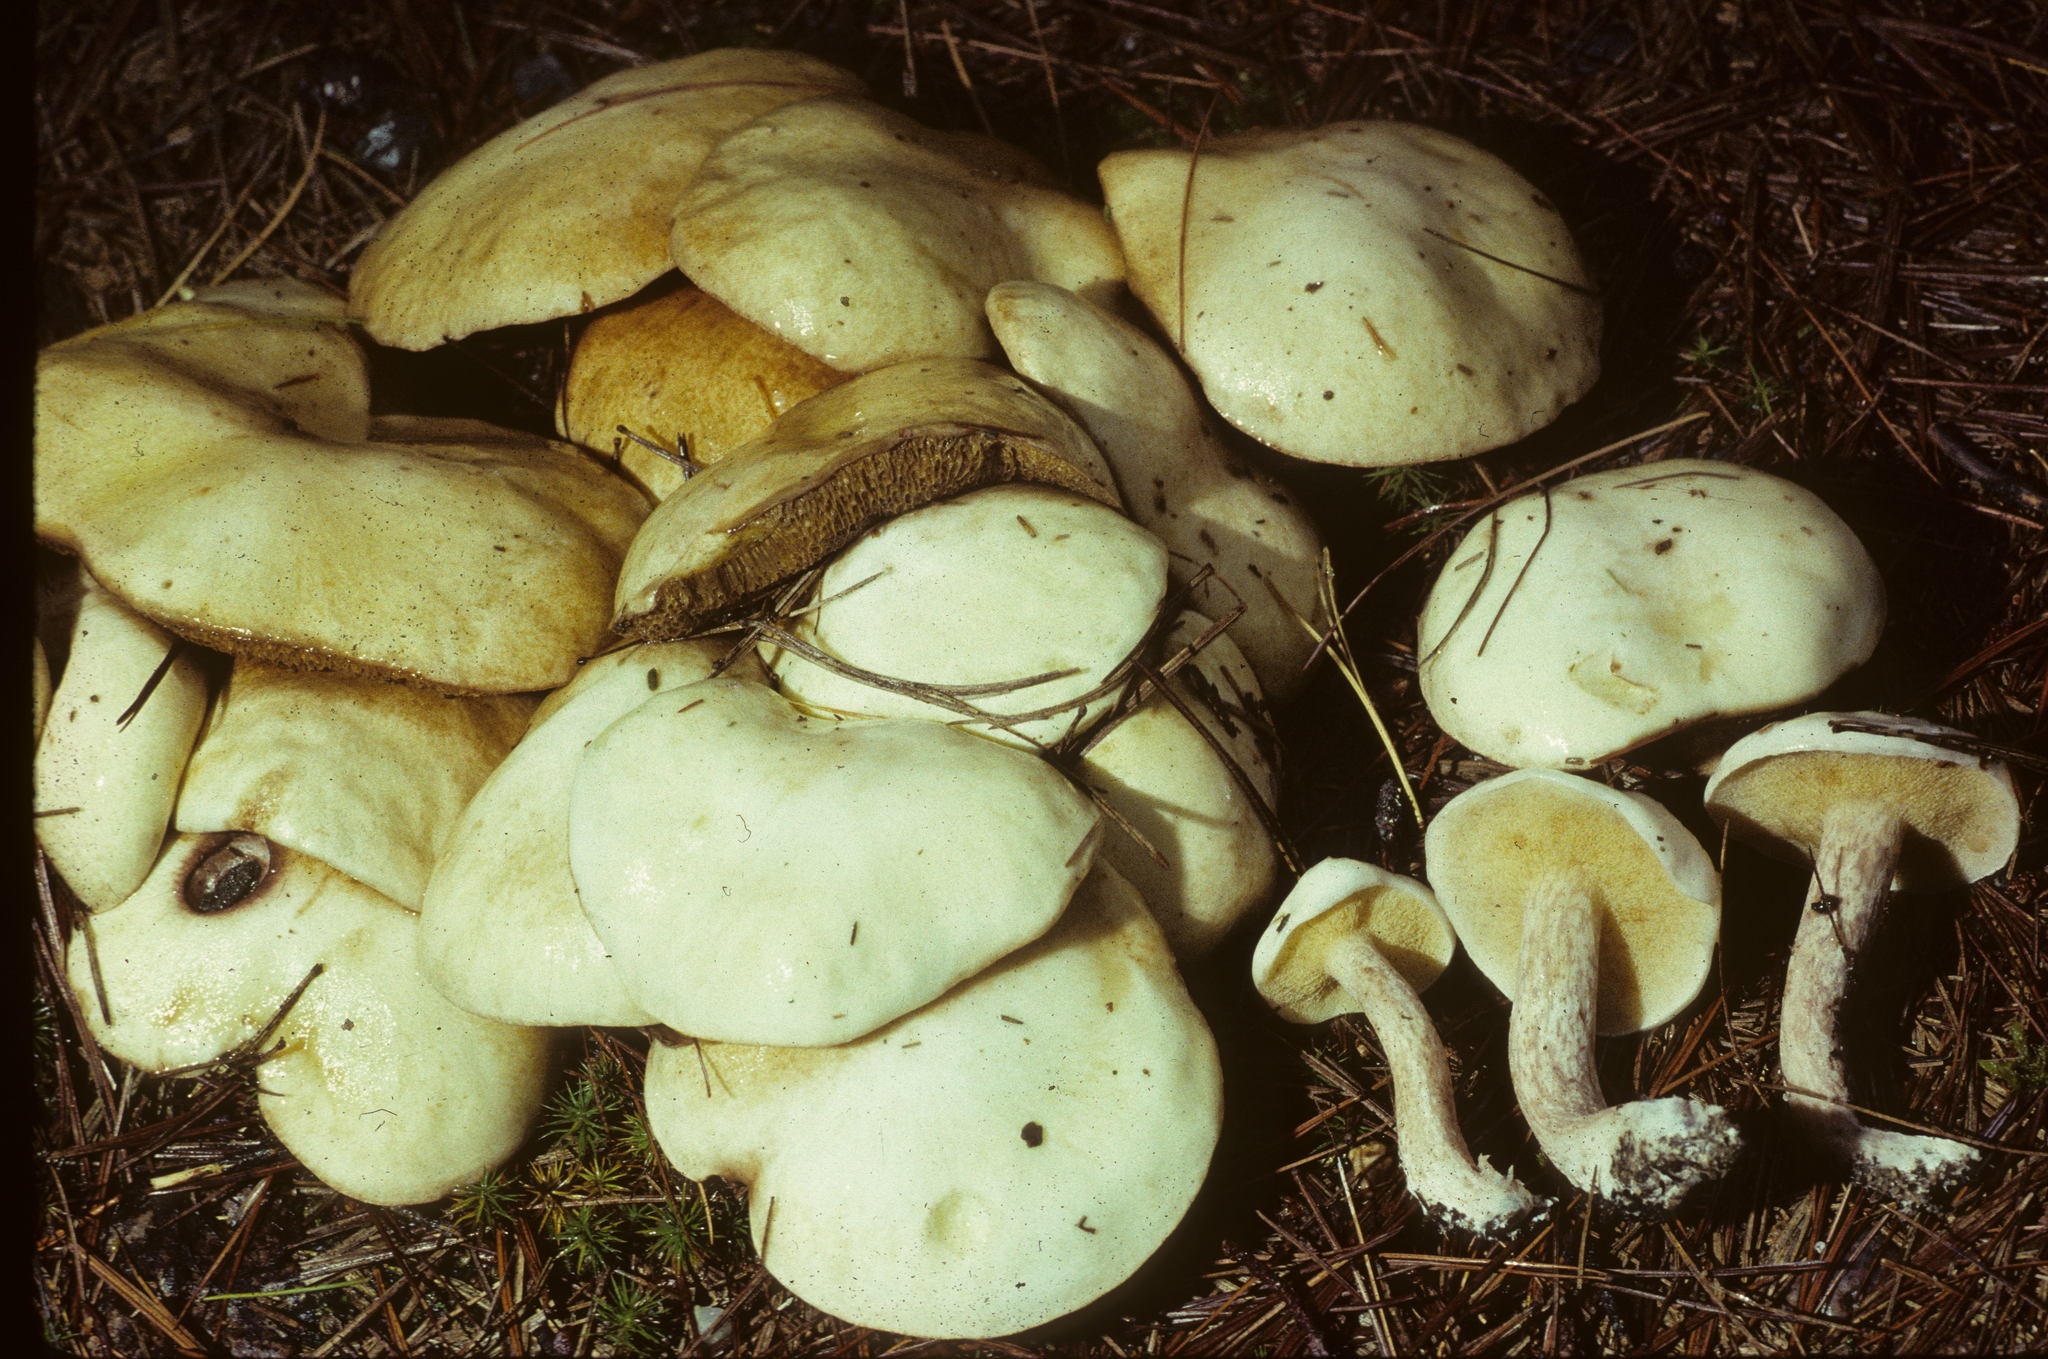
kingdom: Fungi
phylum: Basidiomycota
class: Agaricomycetes
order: Boletales
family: Suillaceae
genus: Suillus
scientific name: Suillus placidus
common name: Slippery white bolete
